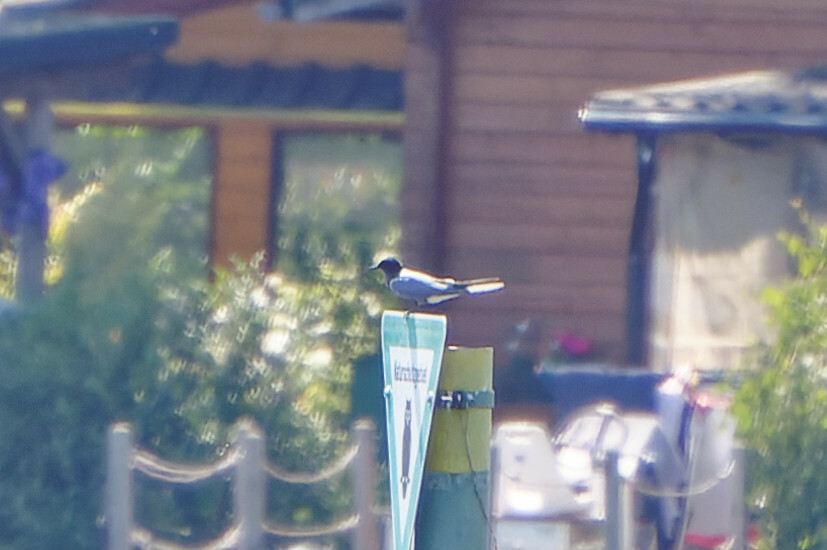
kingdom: Animalia
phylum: Chordata
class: Aves
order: Charadriiformes
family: Laridae
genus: Chlidonias
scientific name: Chlidonias niger
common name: Black tern
